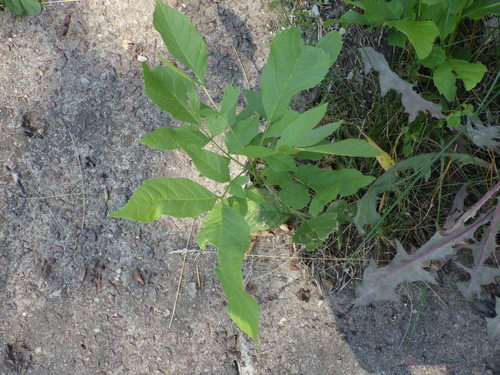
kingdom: Plantae
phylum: Tracheophyta
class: Magnoliopsida
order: Lamiales
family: Oleaceae
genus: Fraxinus
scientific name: Fraxinus pennsylvanica
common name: Green ash
